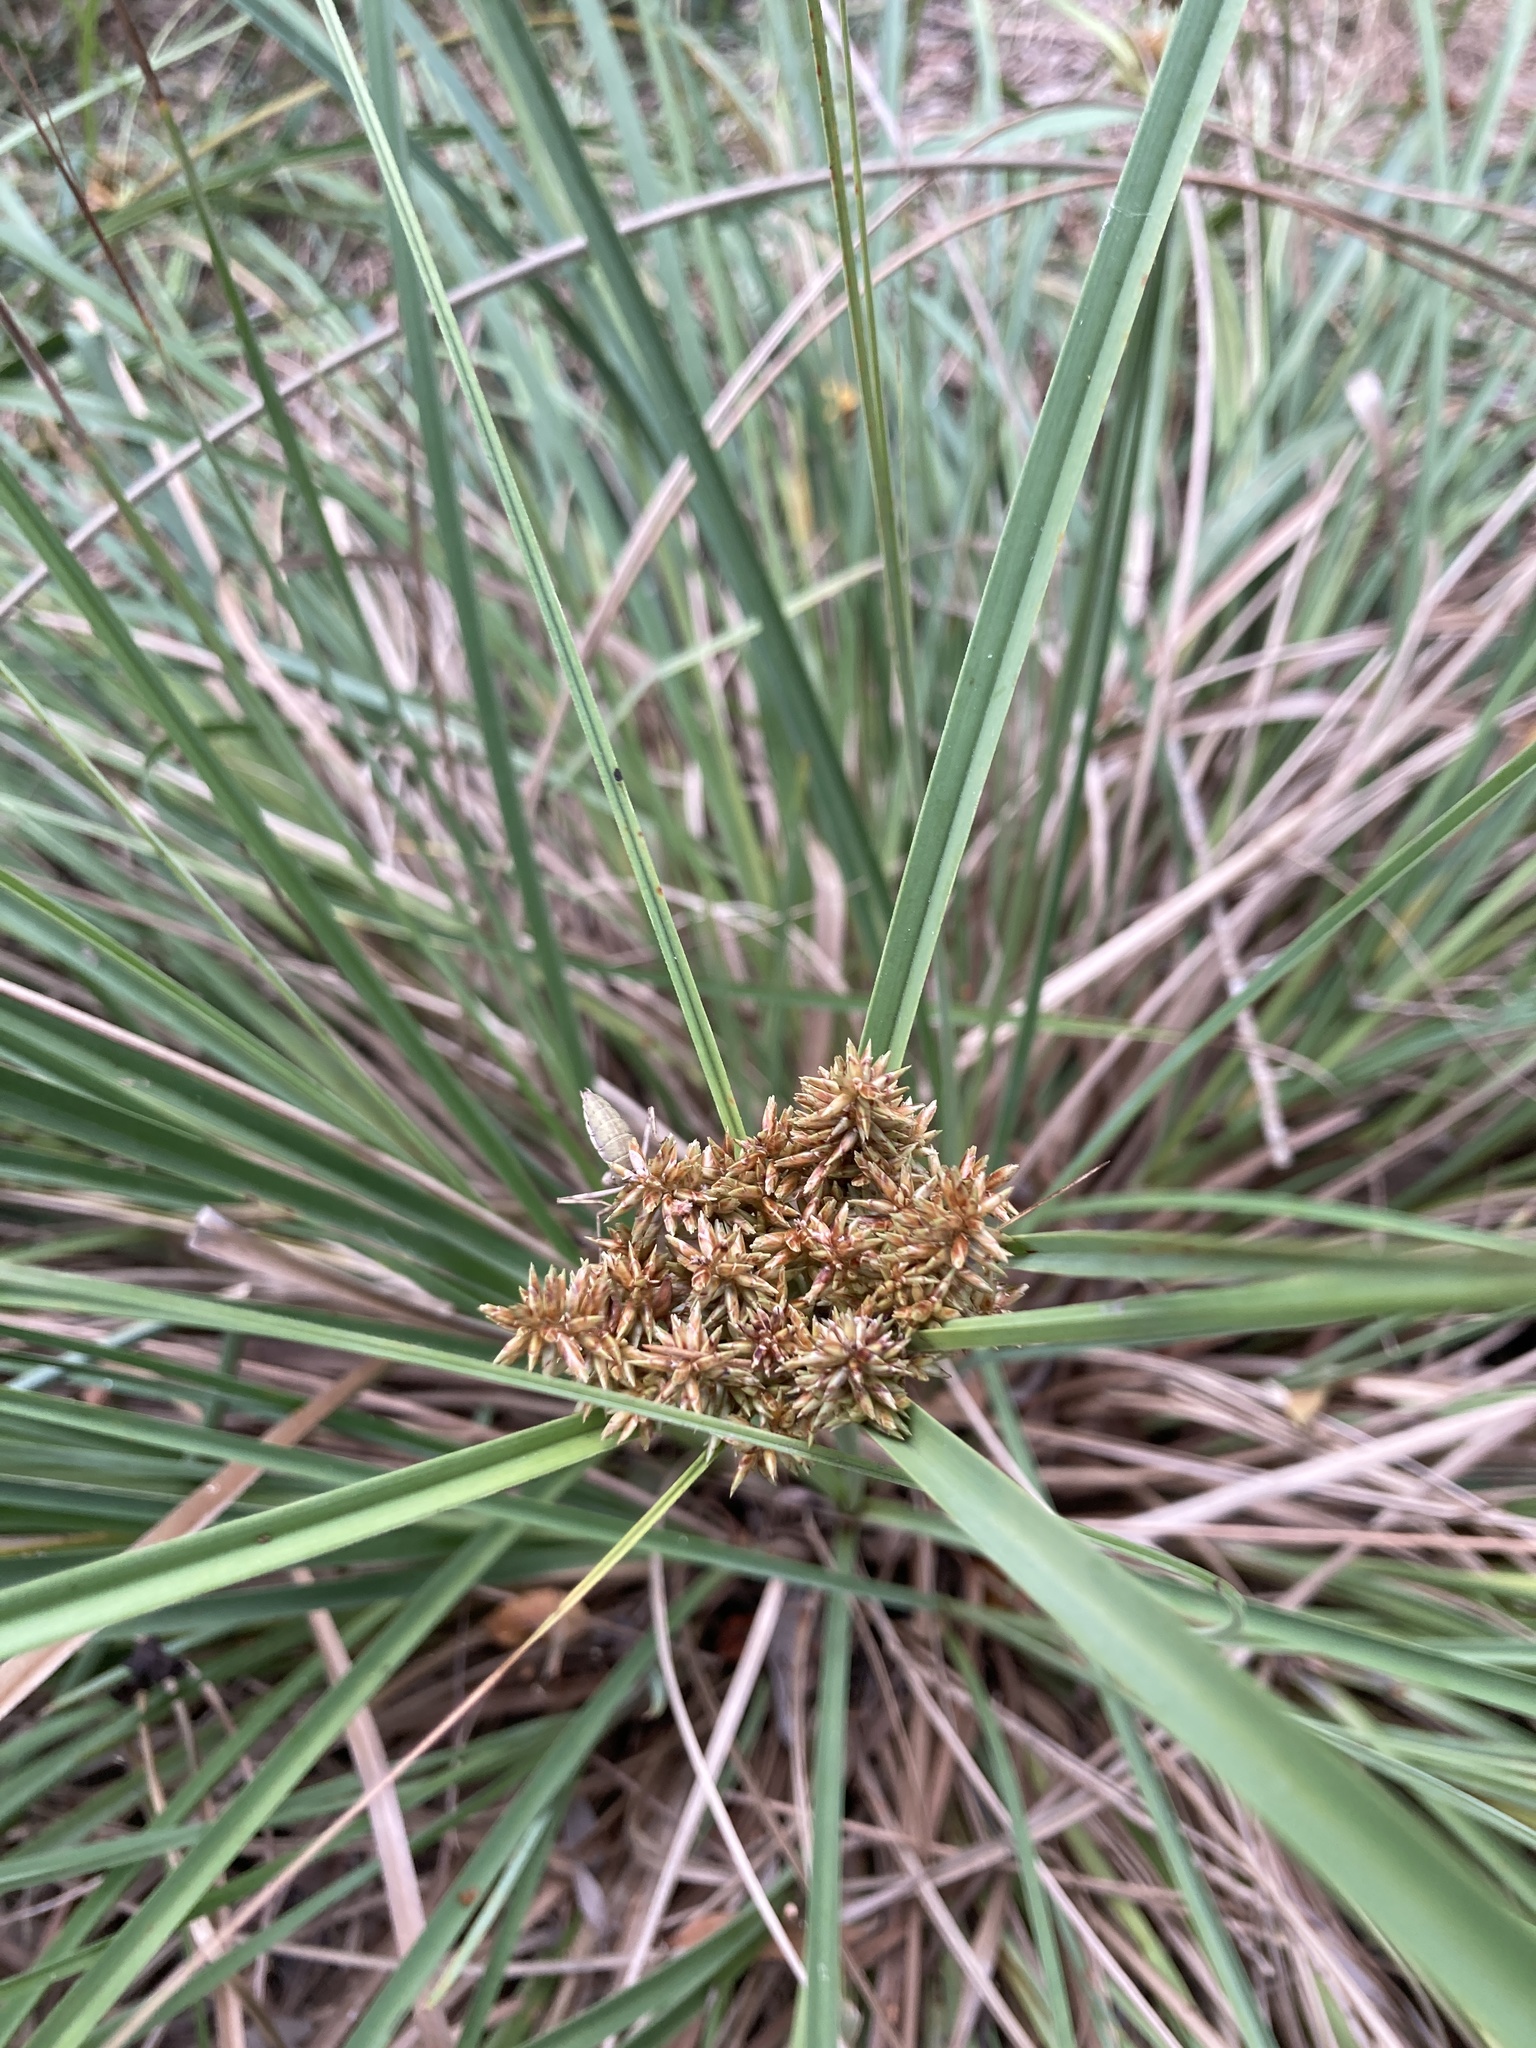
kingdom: Plantae
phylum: Tracheophyta
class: Liliopsida
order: Poales
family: Cyperaceae
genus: Cyperus
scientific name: Cyperus javanicus
